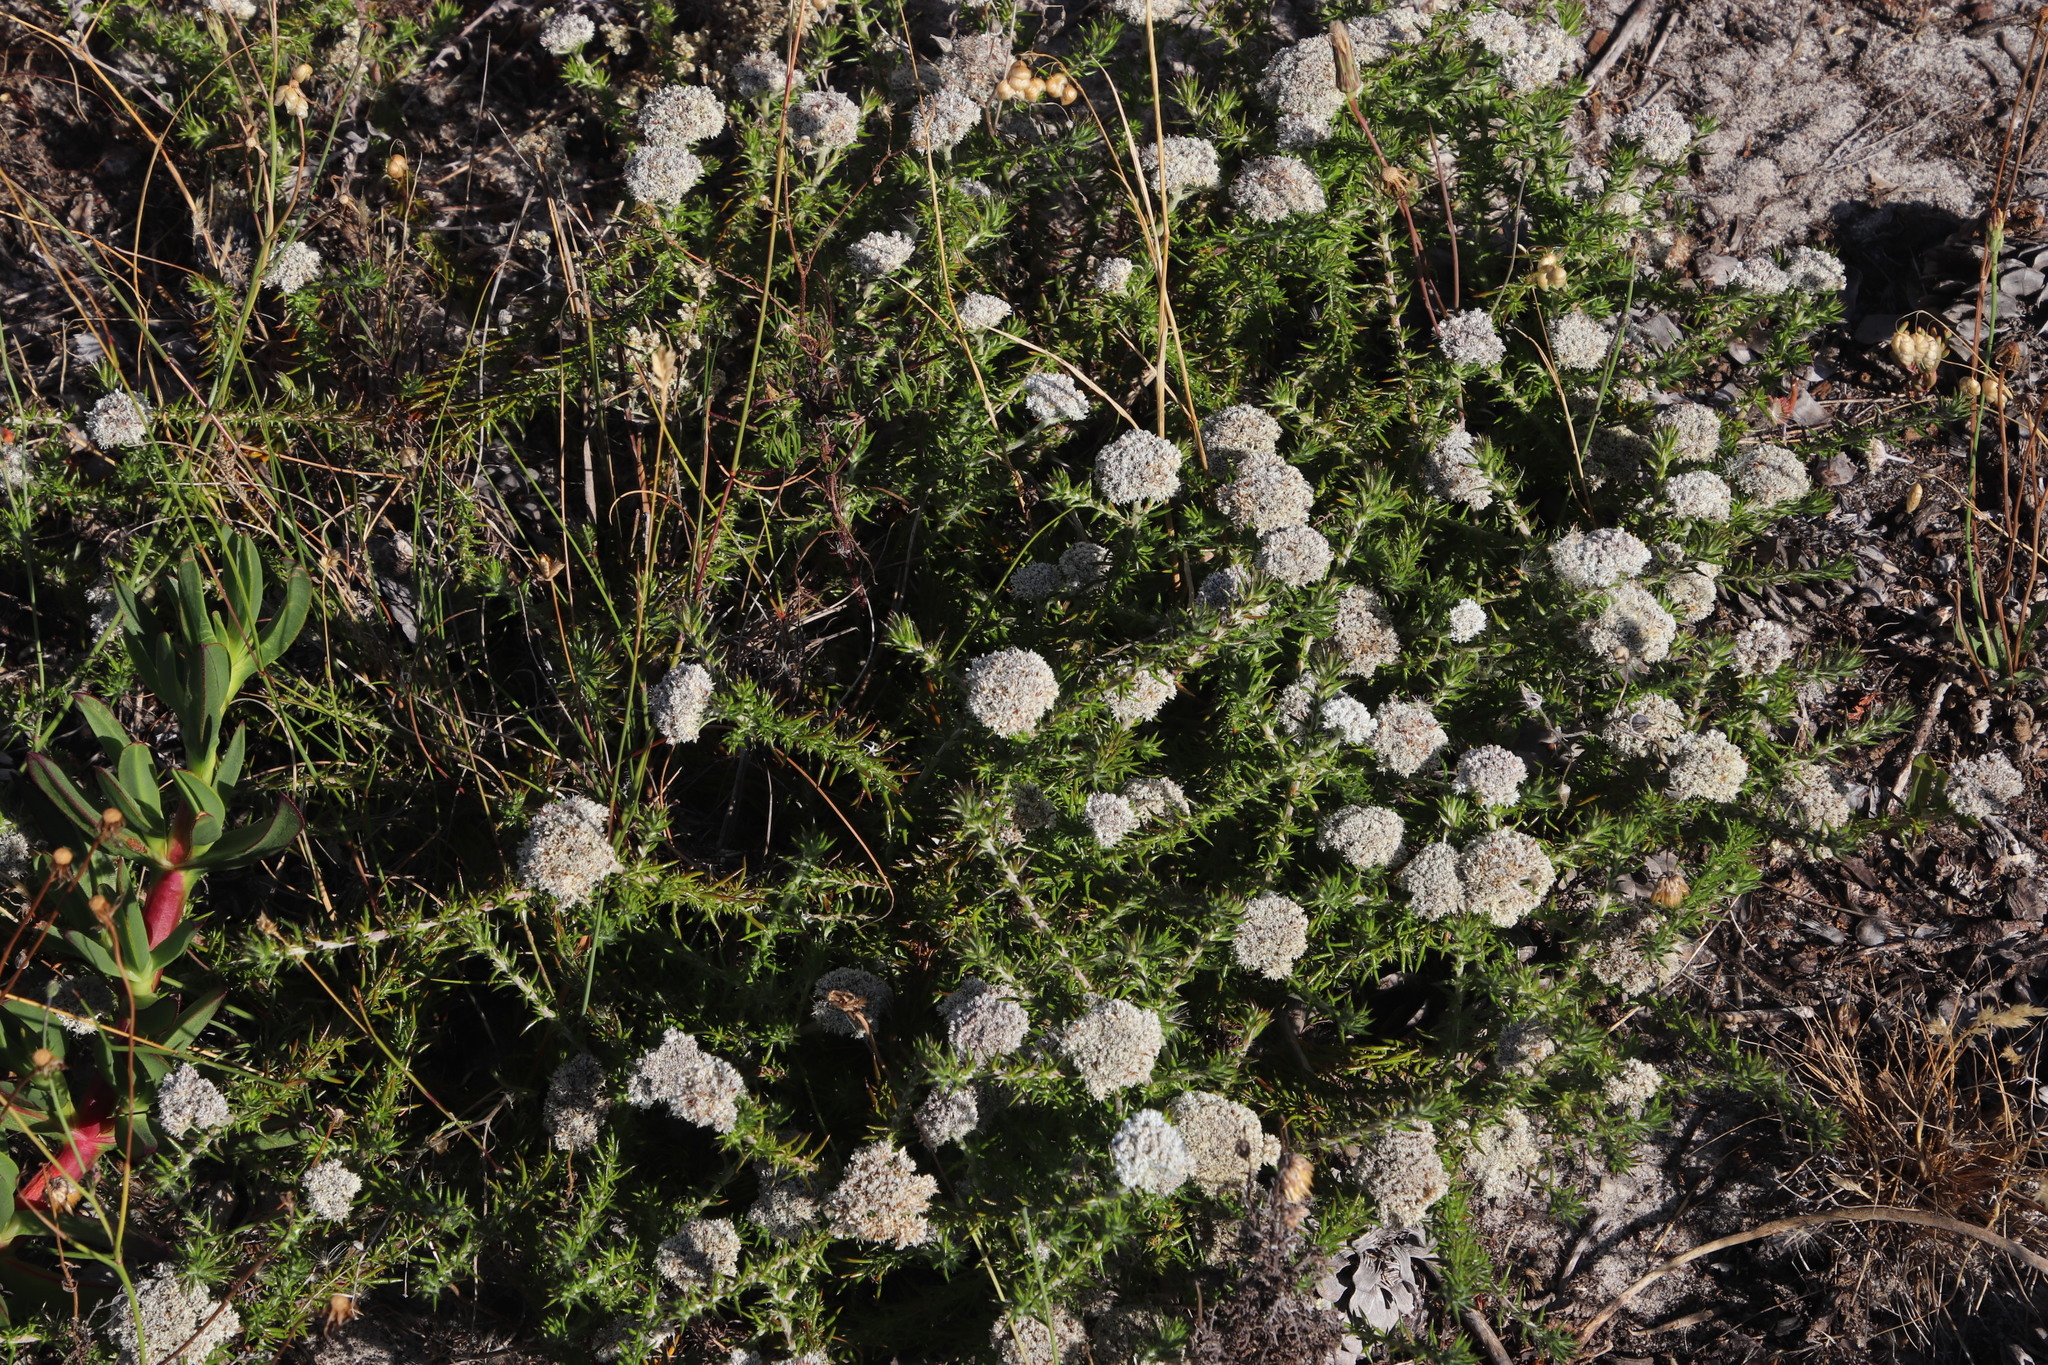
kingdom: Plantae
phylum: Tracheophyta
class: Magnoliopsida
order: Asterales
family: Asteraceae
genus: Metalasia
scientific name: Metalasia pulchella
